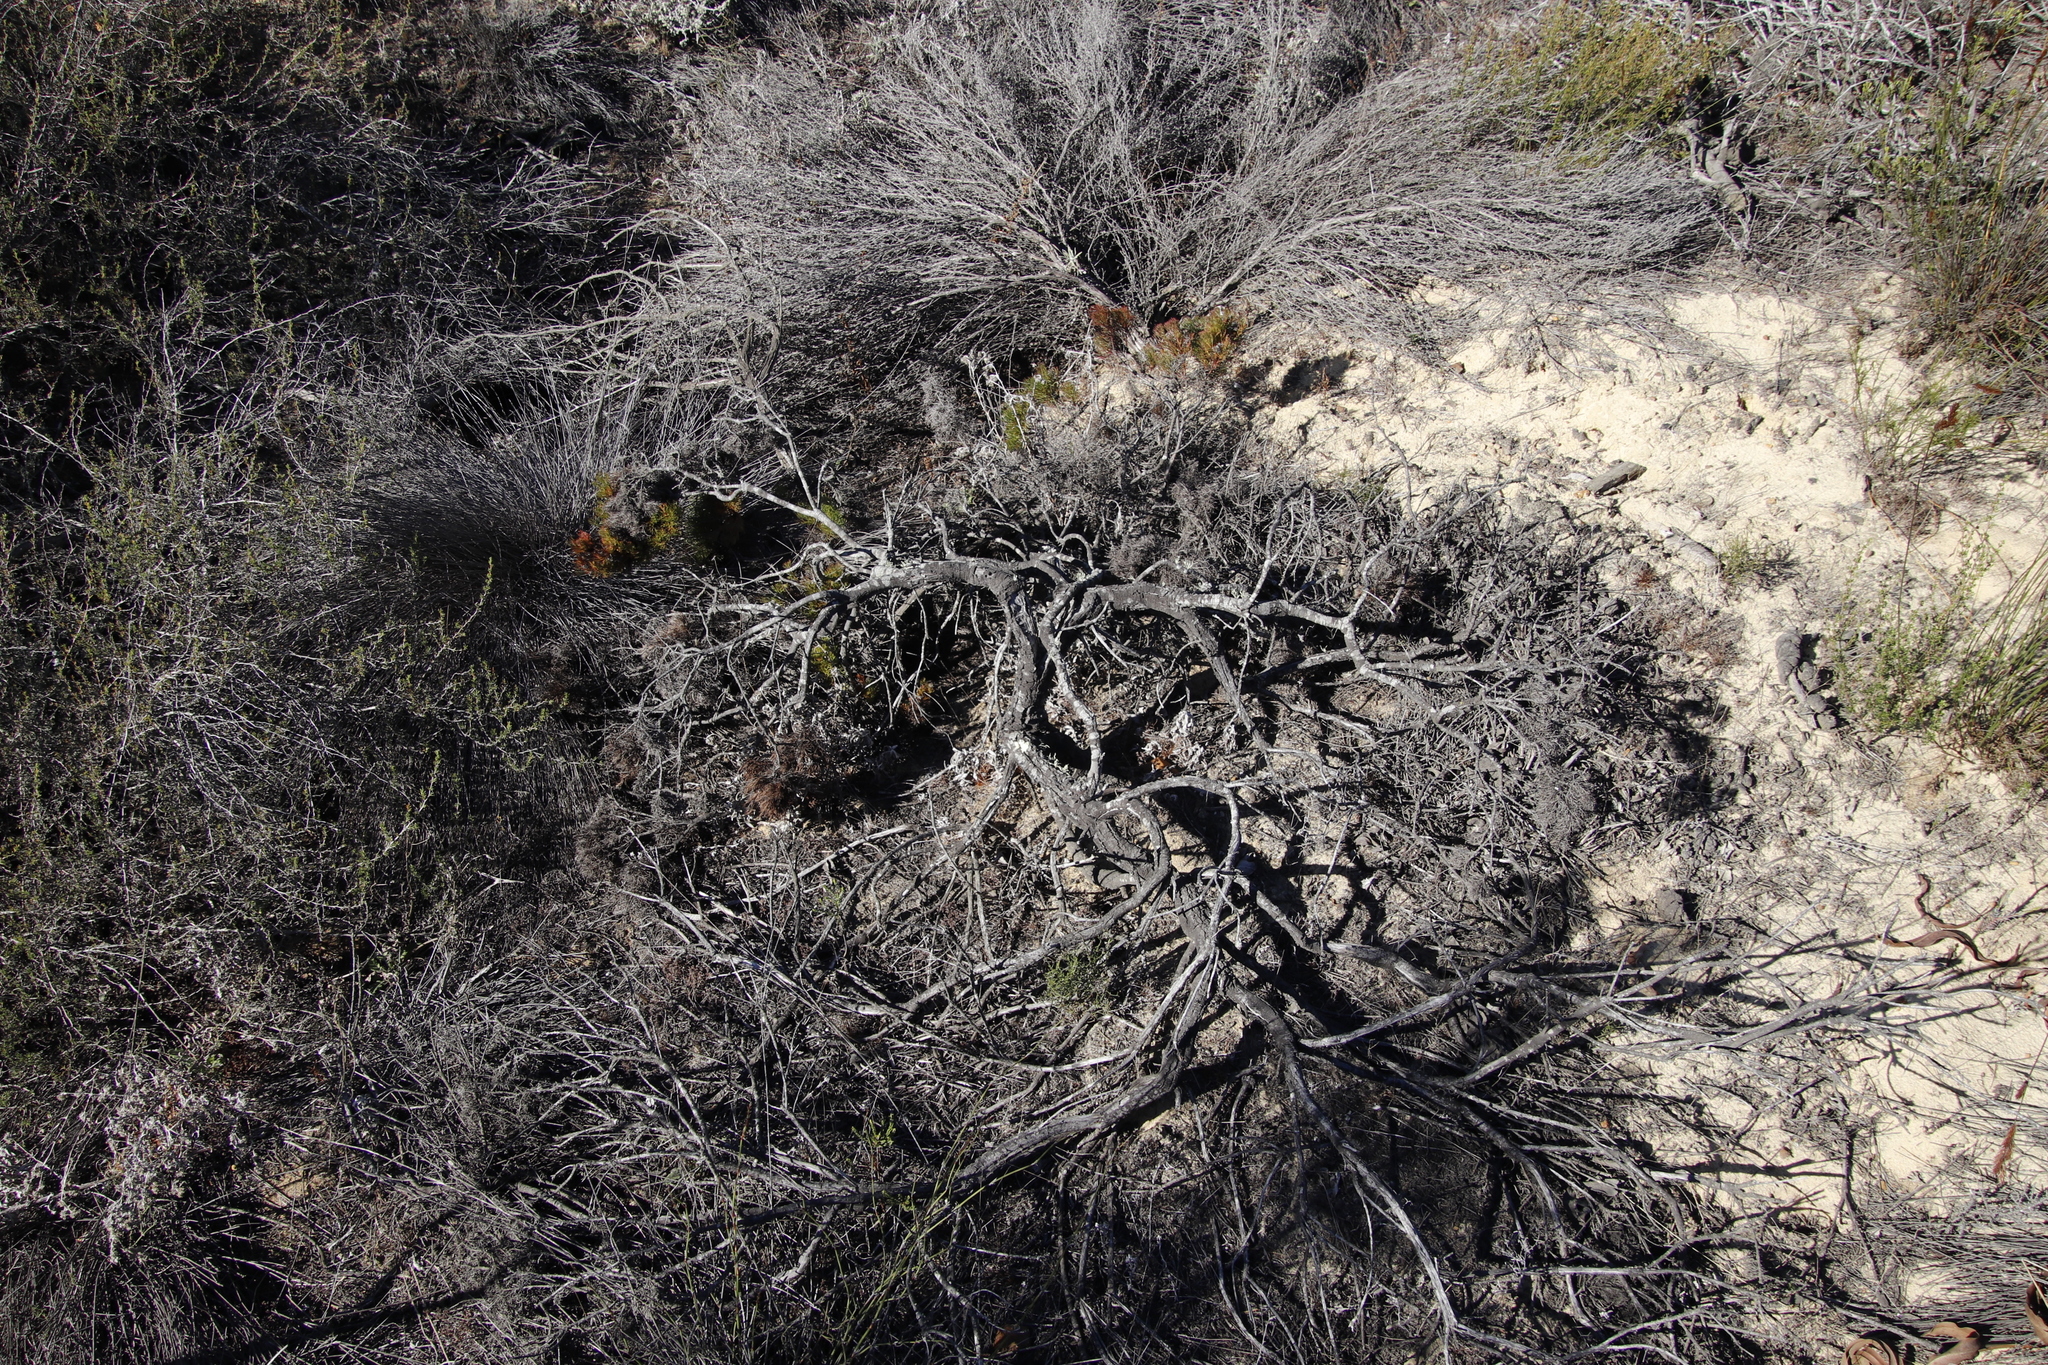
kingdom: Plantae
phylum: Tracheophyta
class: Magnoliopsida
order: Proteales
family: Proteaceae
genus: Serruria
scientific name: Serruria decipiens
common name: Sandveld spiderhead
